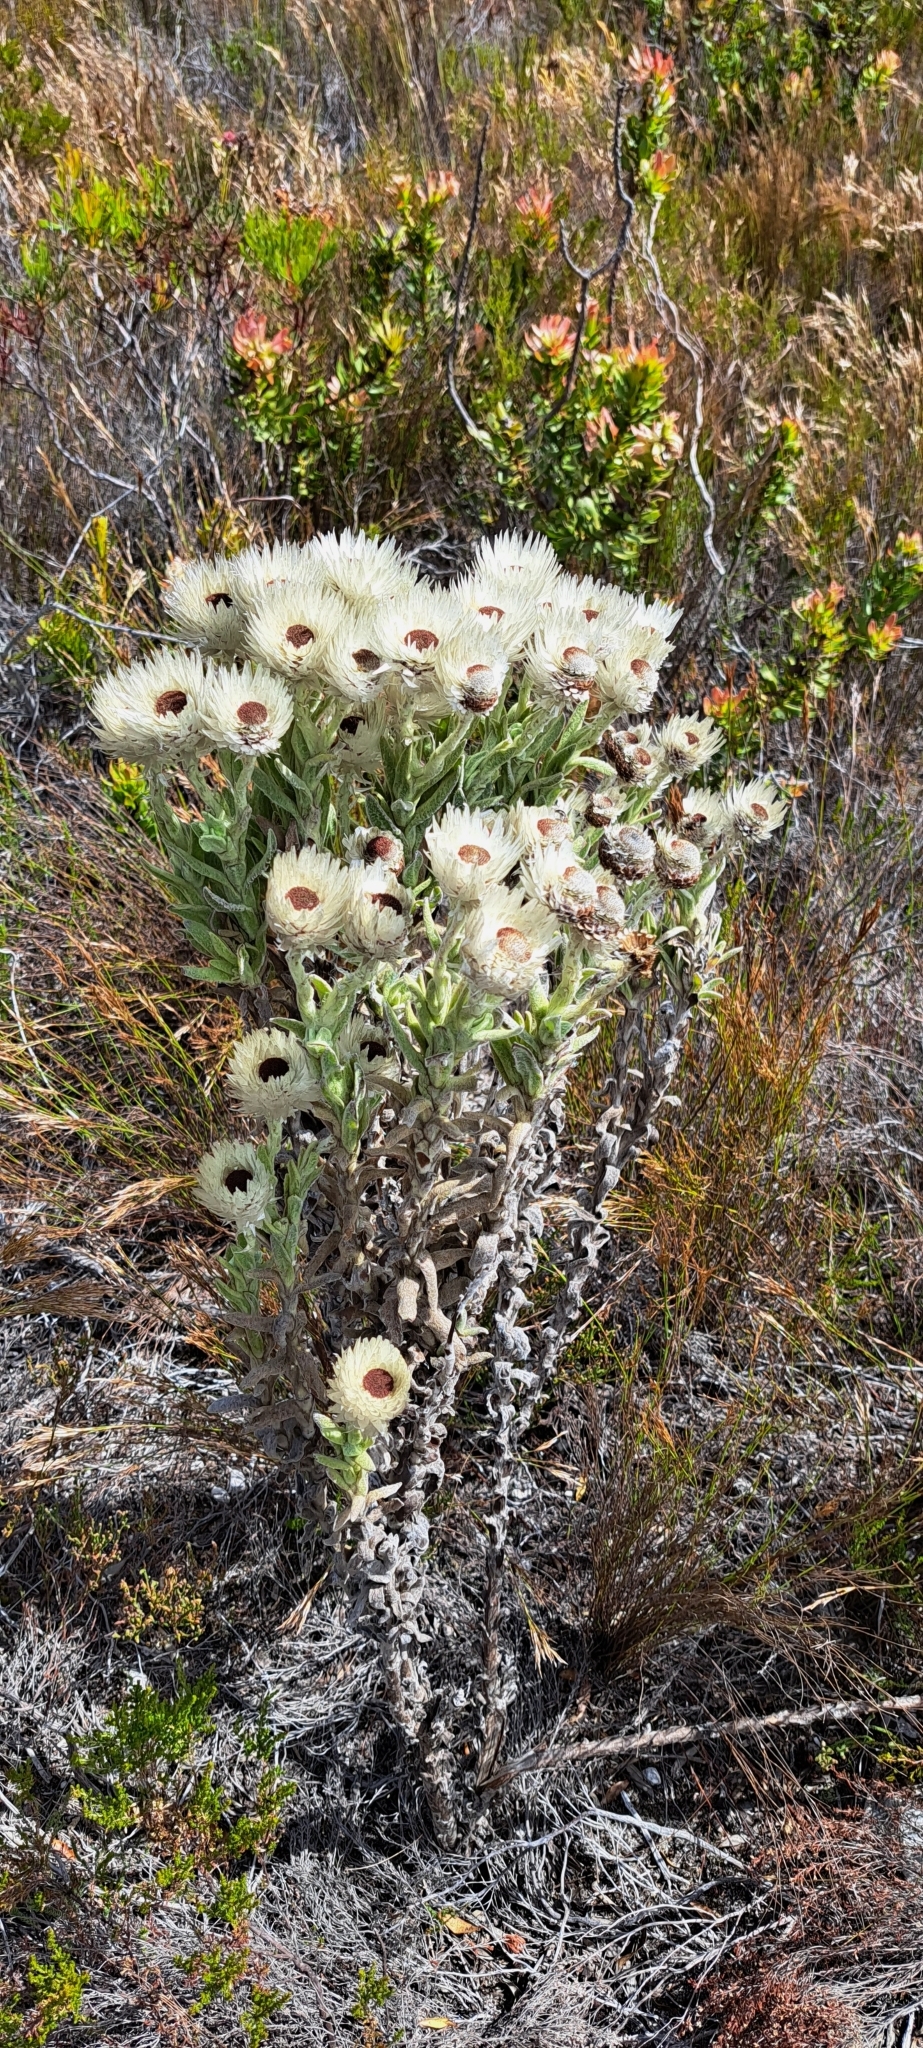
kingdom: Plantae
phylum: Tracheophyta
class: Magnoliopsida
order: Asterales
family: Asteraceae
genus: Syncarpha
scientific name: Syncarpha vestita
